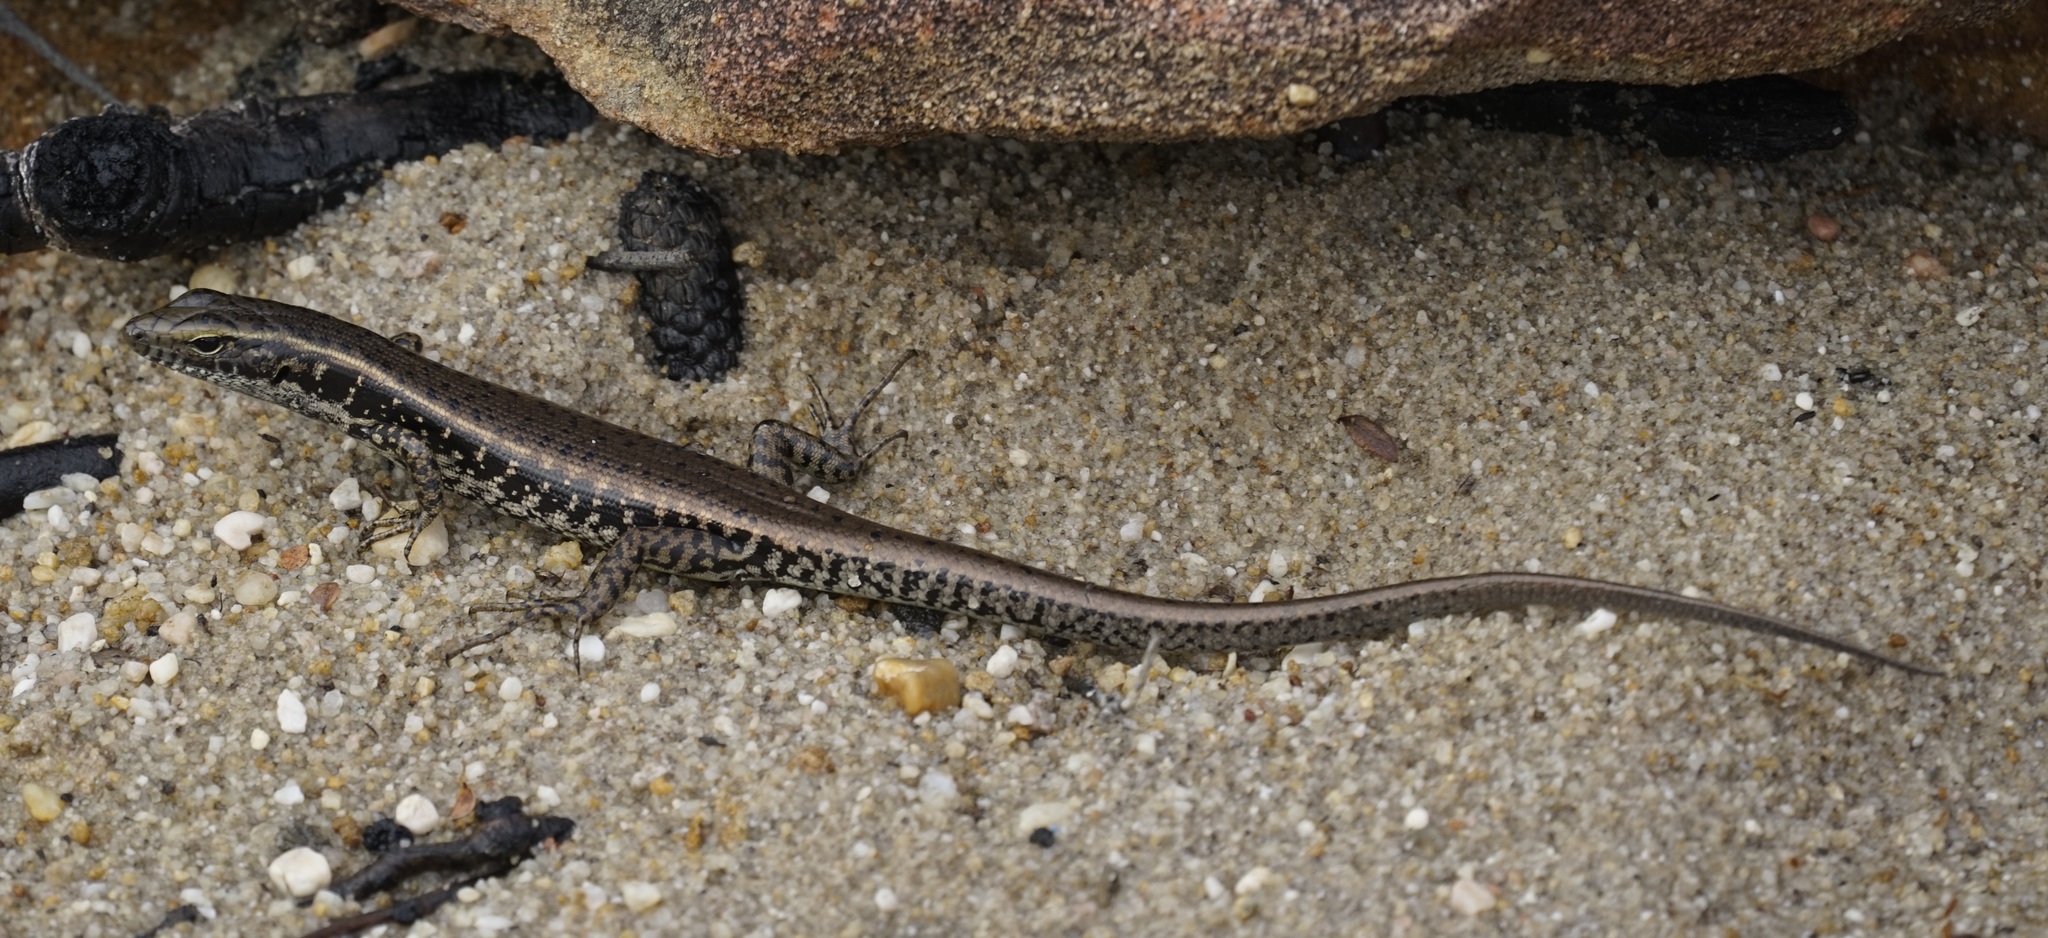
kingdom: Animalia
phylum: Chordata
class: Squamata
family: Scincidae
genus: Eulamprus
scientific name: Eulamprus quoyii
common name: Eastern water skink
